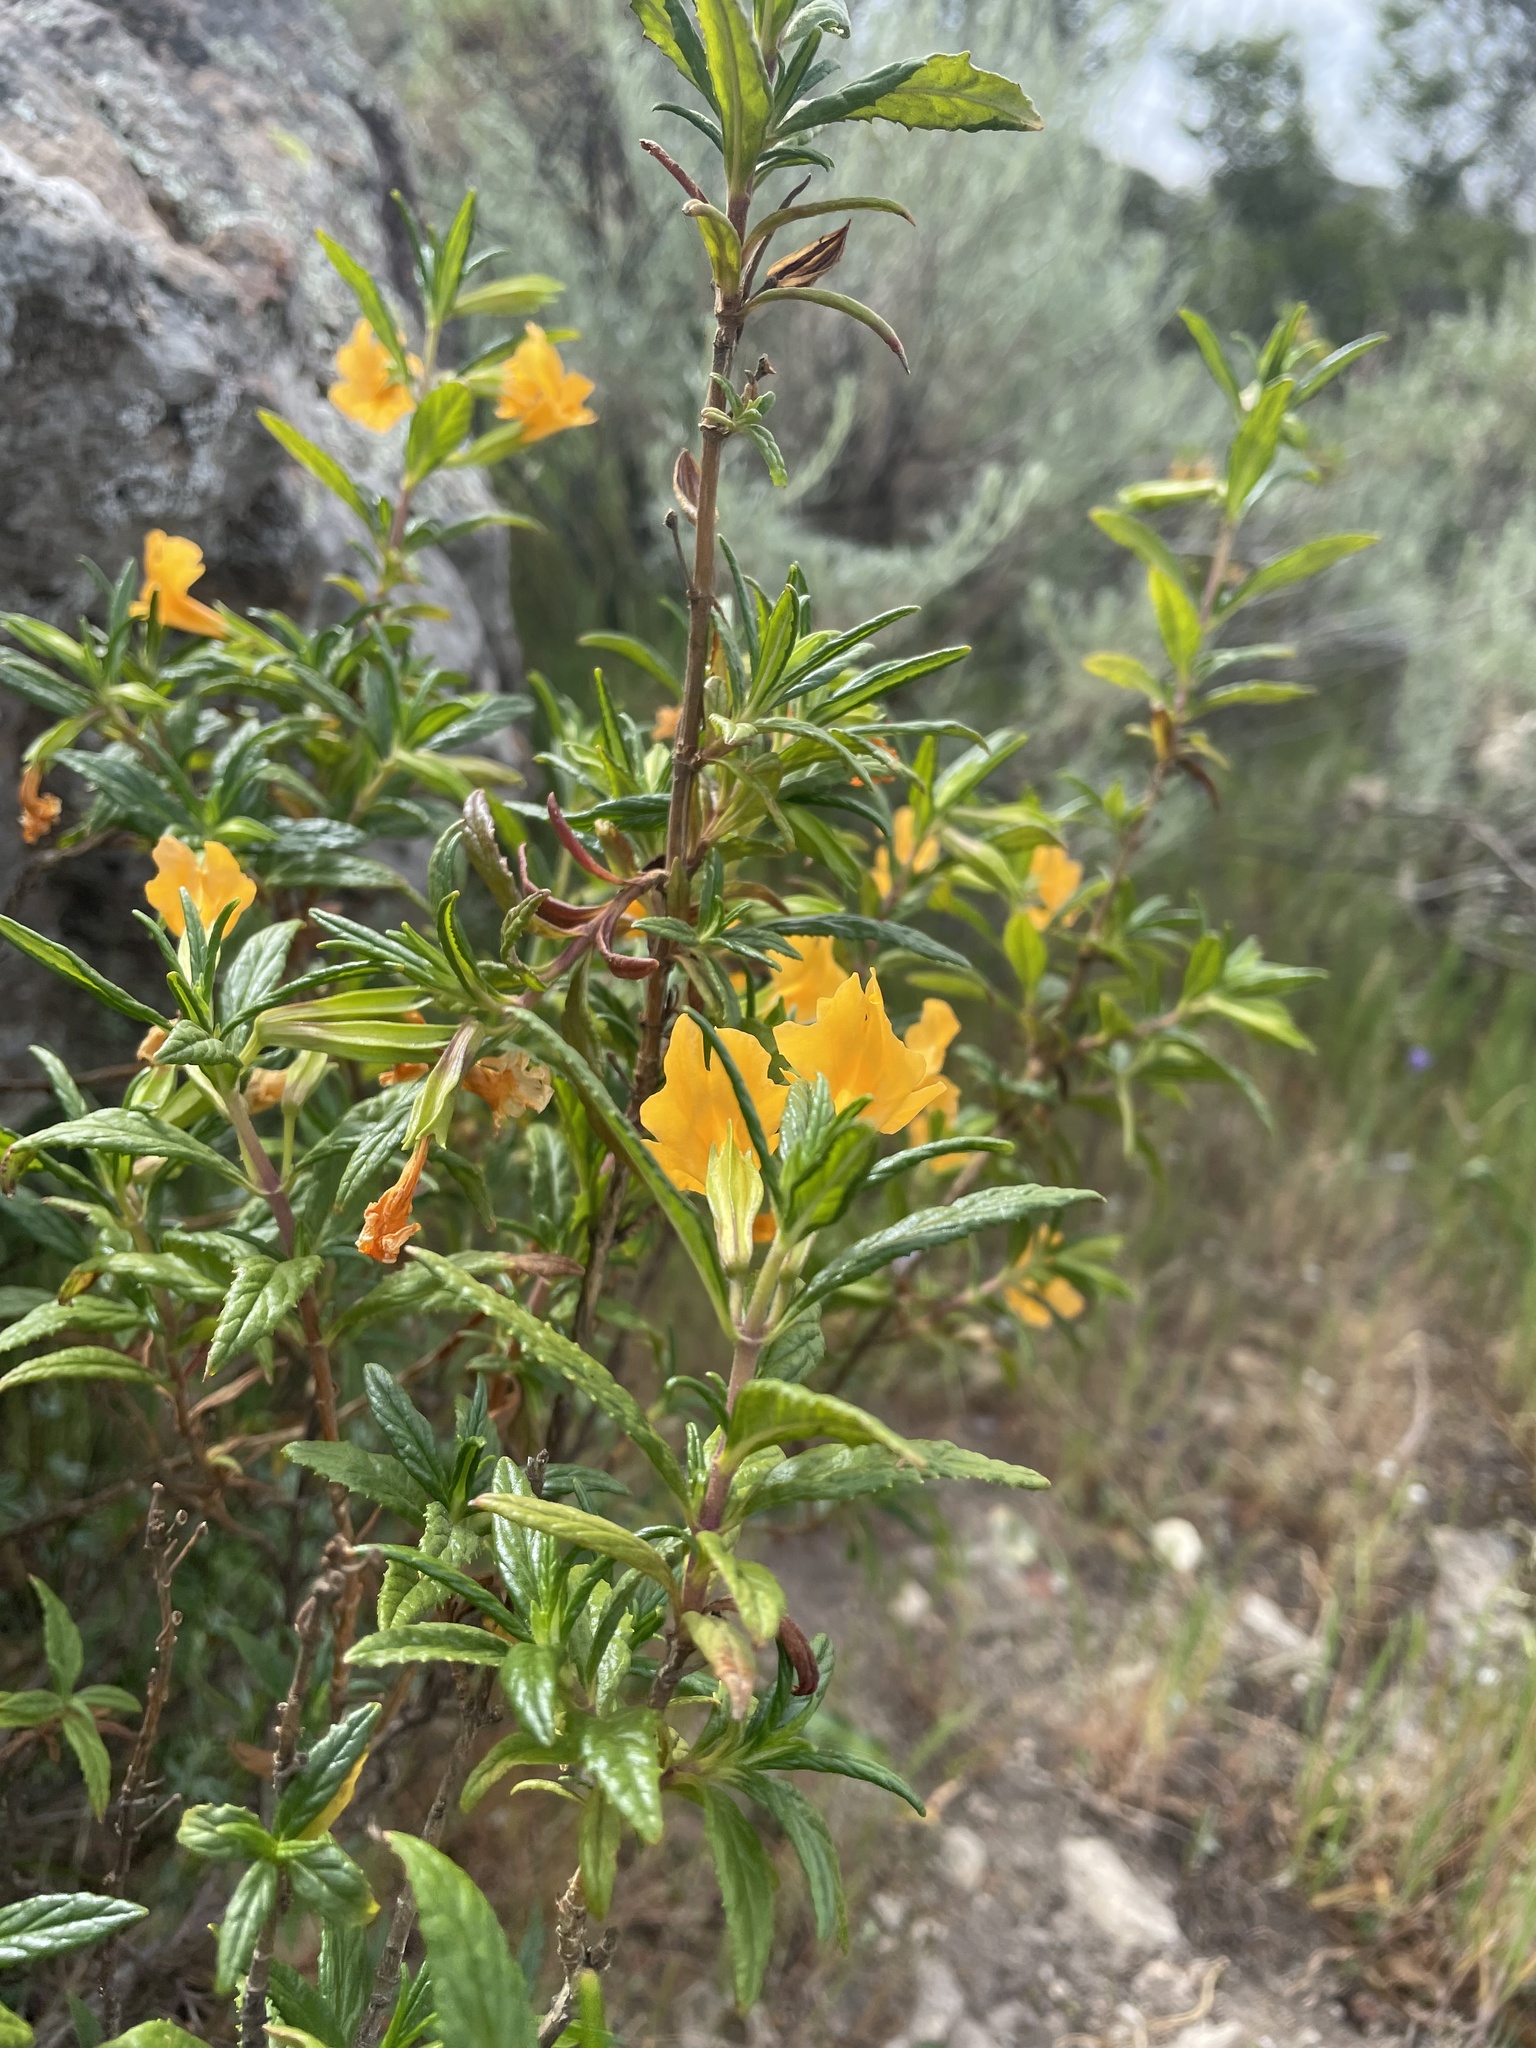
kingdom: Plantae
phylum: Tracheophyta
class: Magnoliopsida
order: Lamiales
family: Phrymaceae
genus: Diplacus
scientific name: Diplacus aurantiacus
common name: Bush monkey-flower
